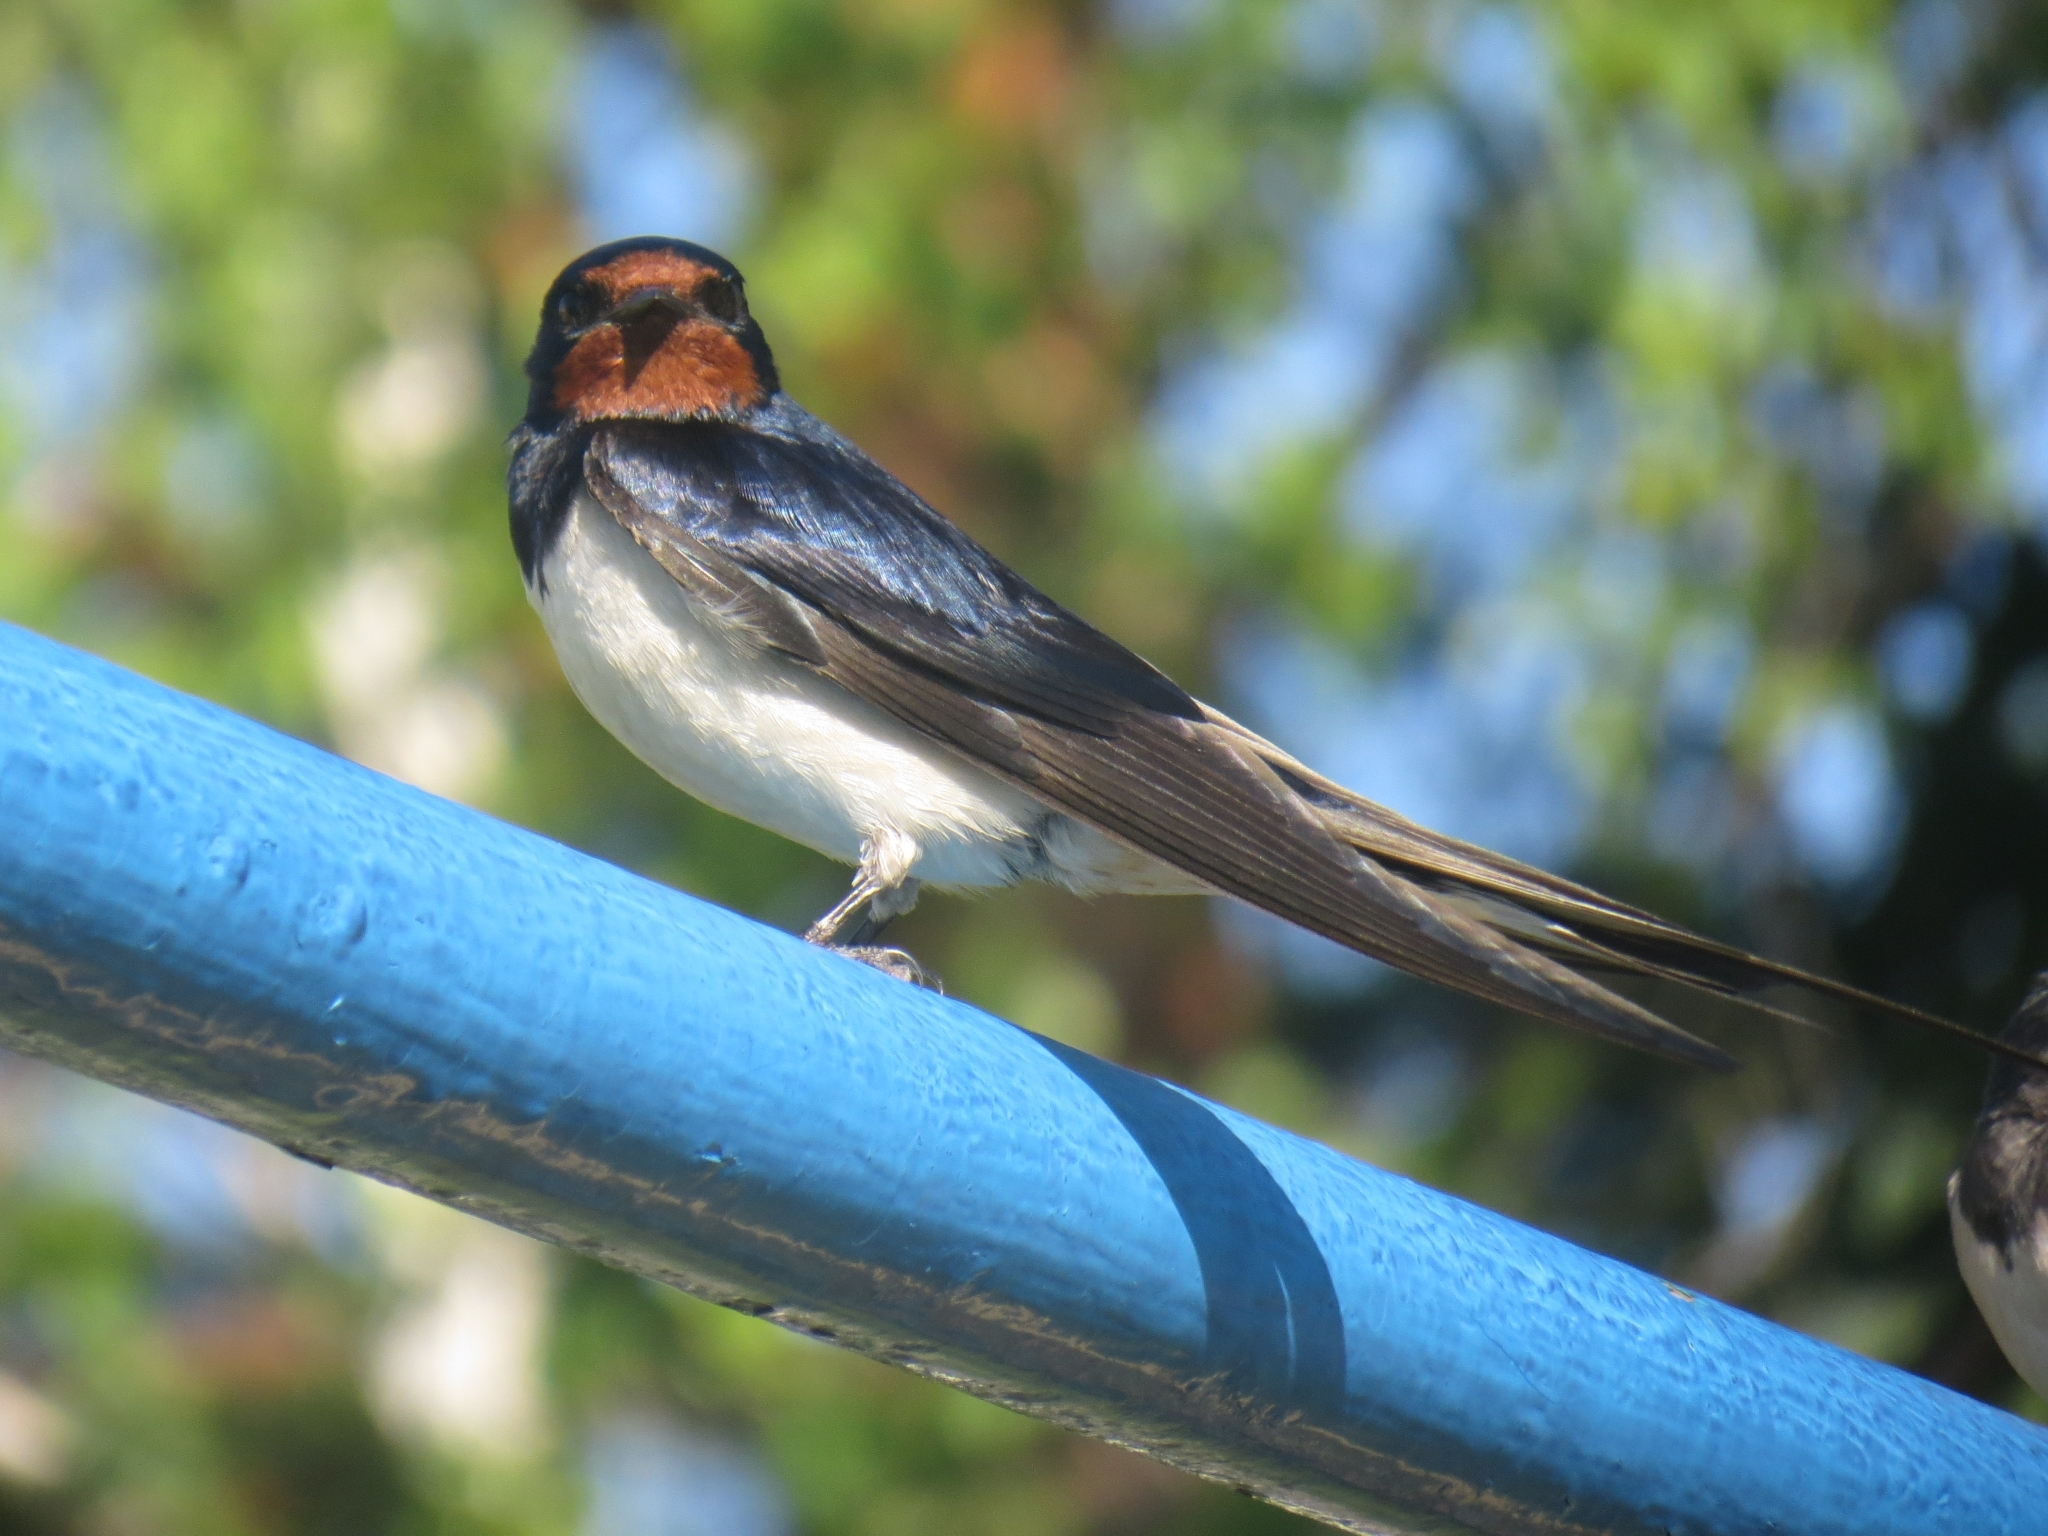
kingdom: Animalia
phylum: Chordata
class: Aves
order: Passeriformes
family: Hirundinidae
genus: Hirundo
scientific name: Hirundo rustica
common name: Barn swallow
